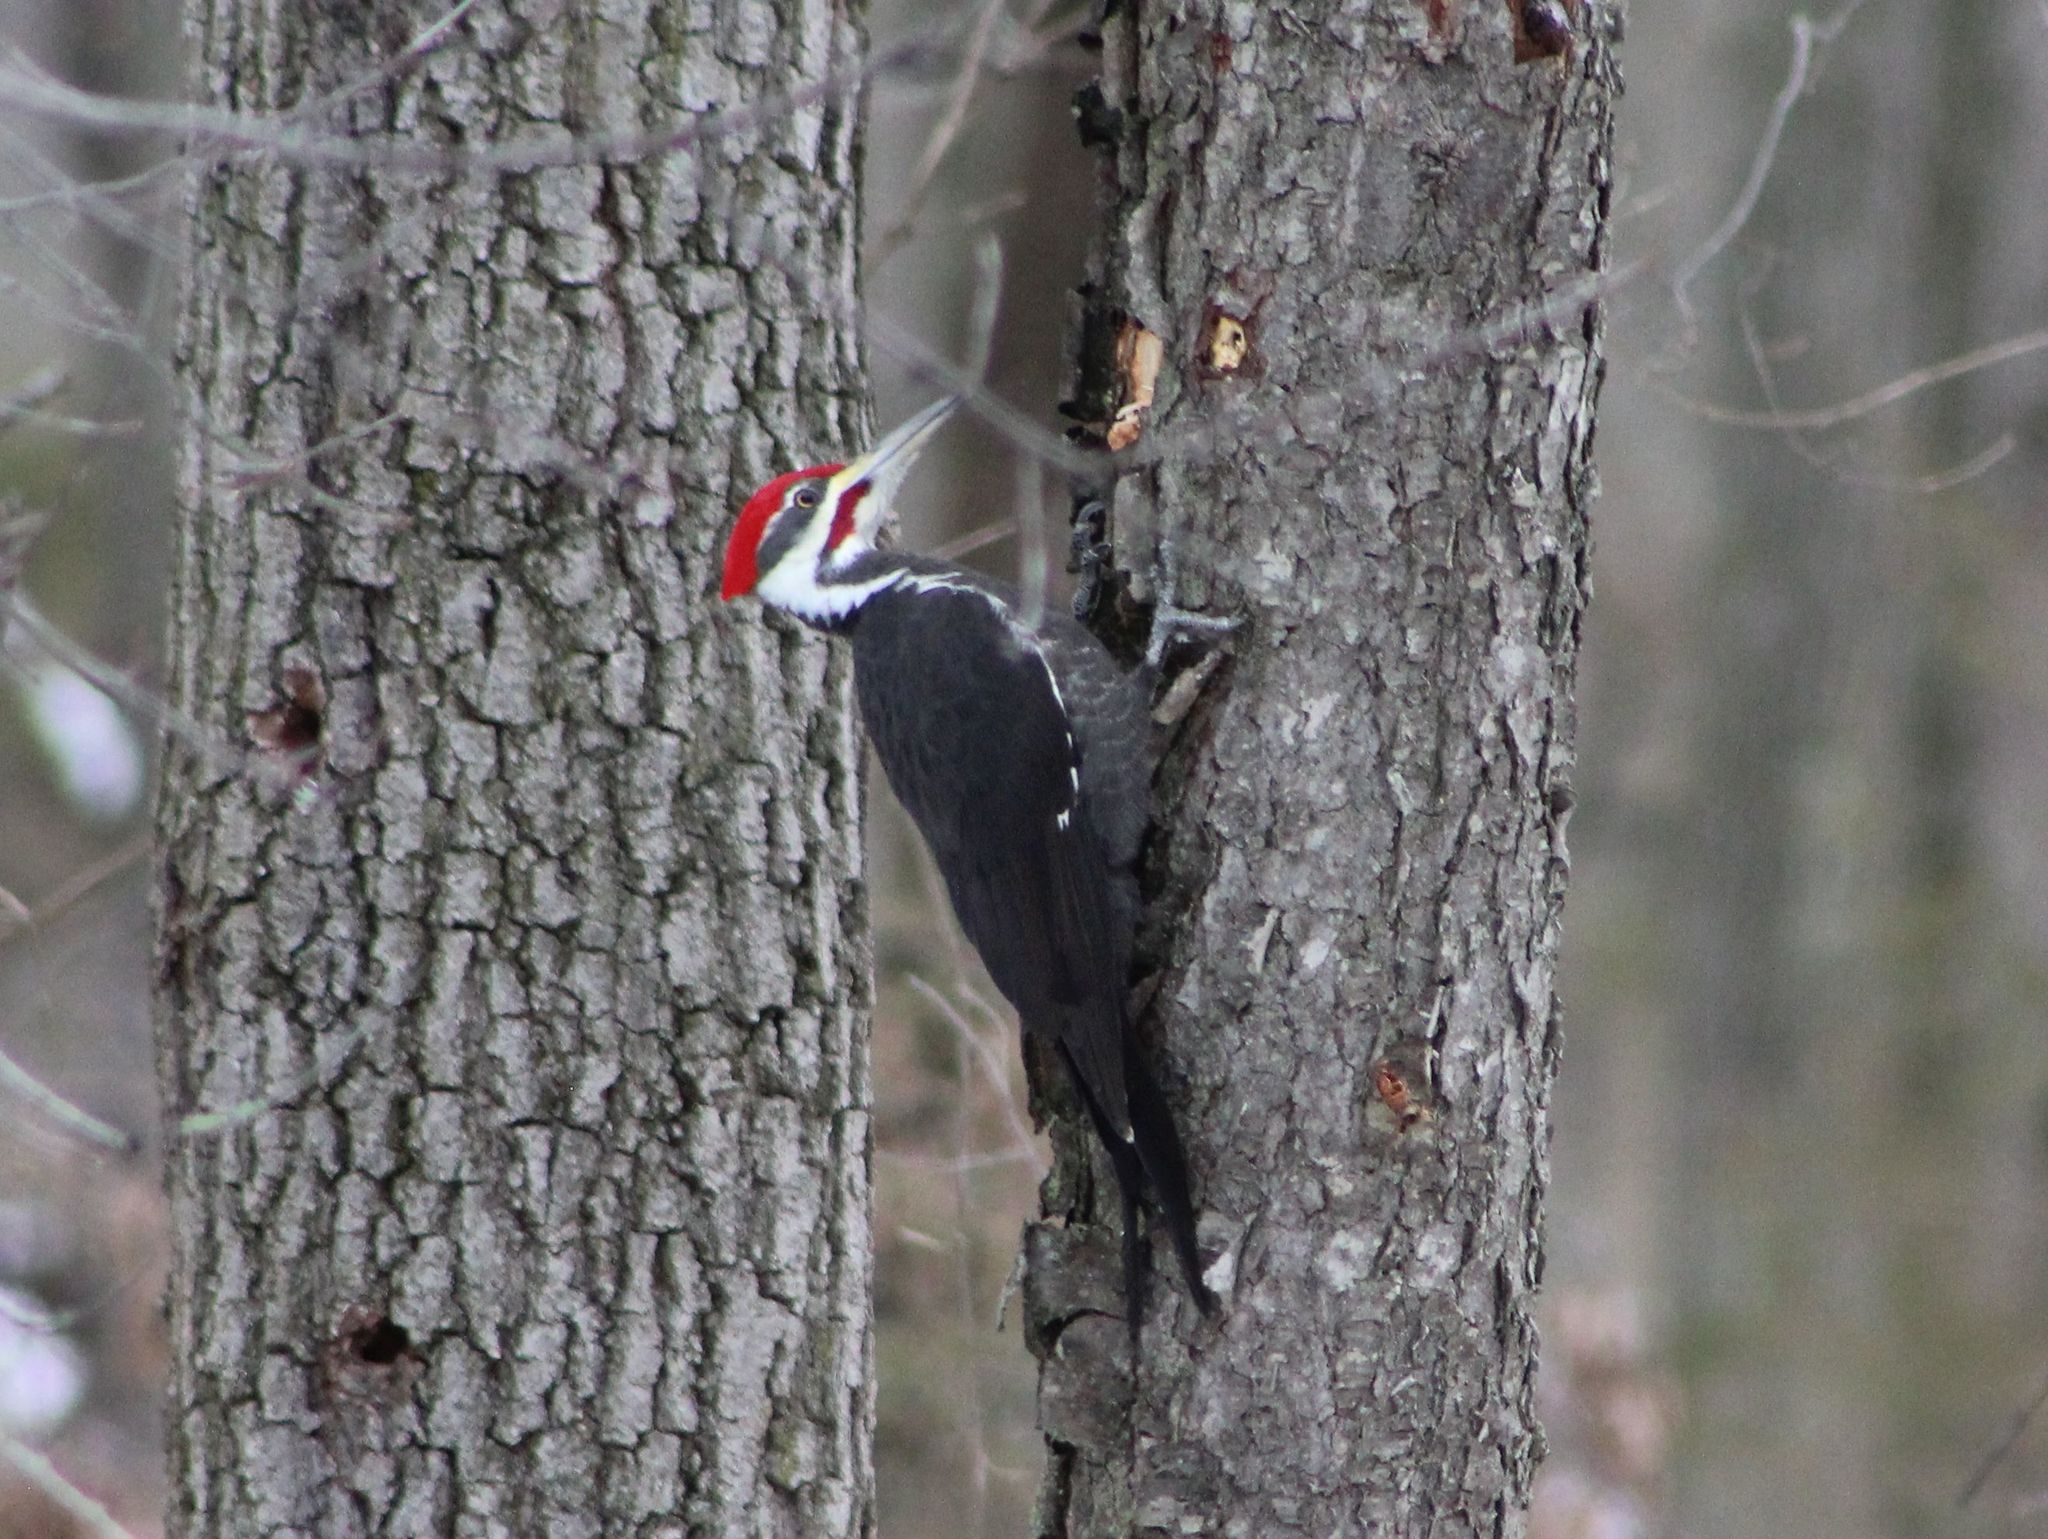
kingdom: Animalia
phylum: Chordata
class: Aves
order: Piciformes
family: Picidae
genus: Dryocopus
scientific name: Dryocopus pileatus
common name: Pileated woodpecker
